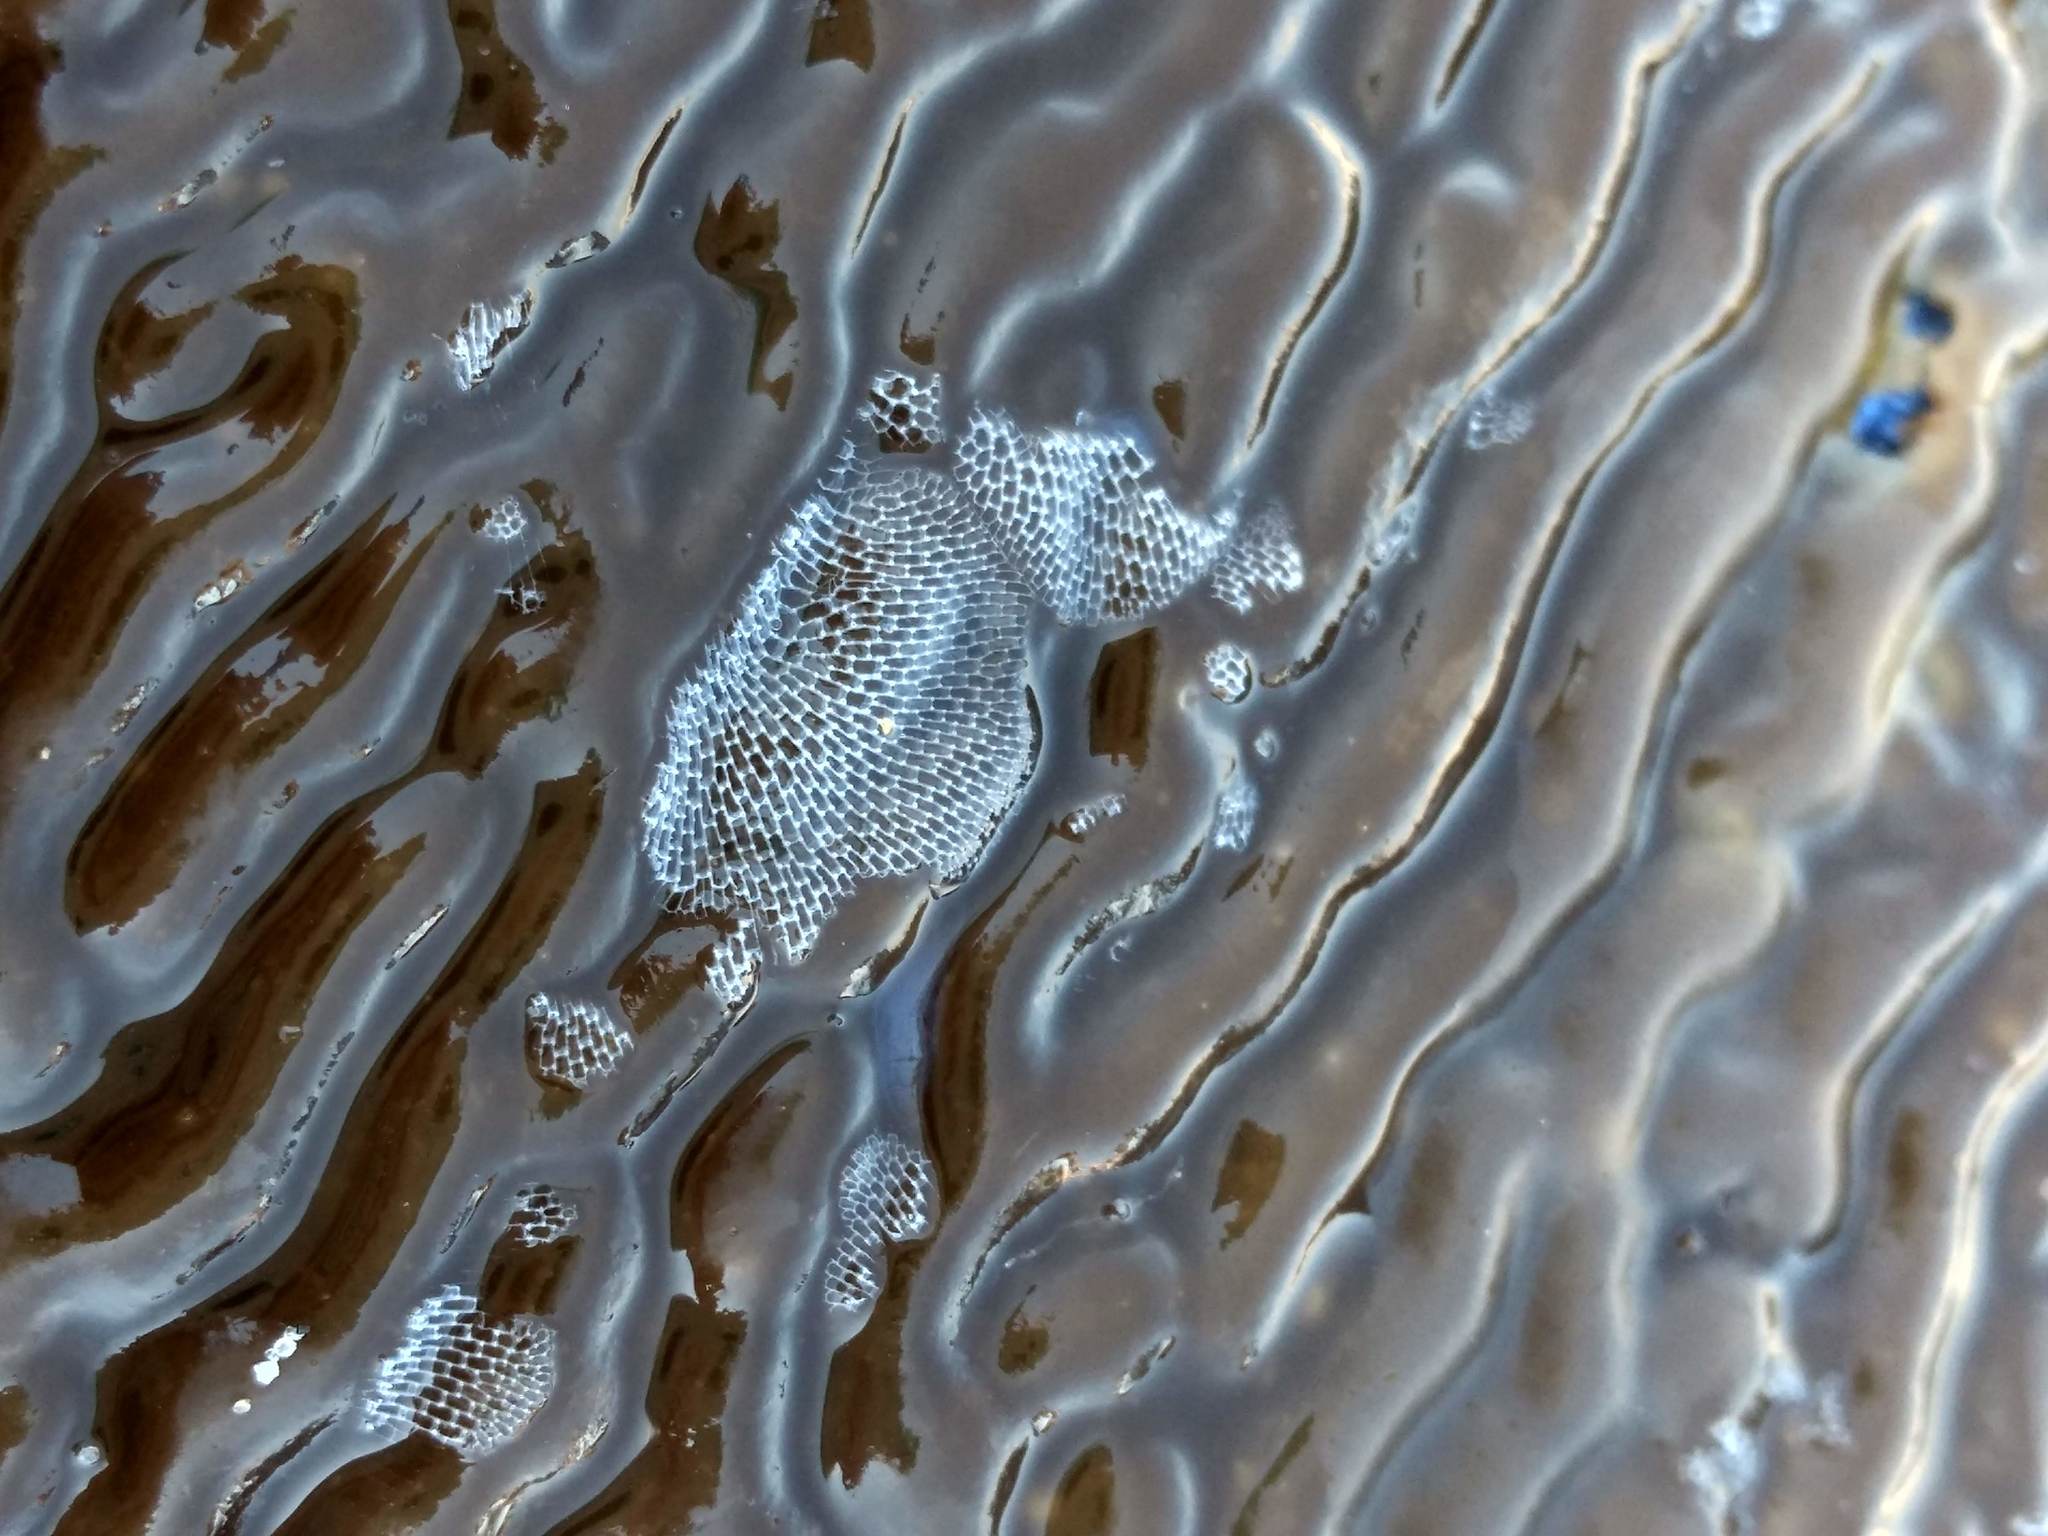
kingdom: Animalia
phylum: Bryozoa
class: Gymnolaemata
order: Cheilostomatida
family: Membraniporidae
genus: Membranipora
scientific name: Membranipora membranacea
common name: Sea mat
